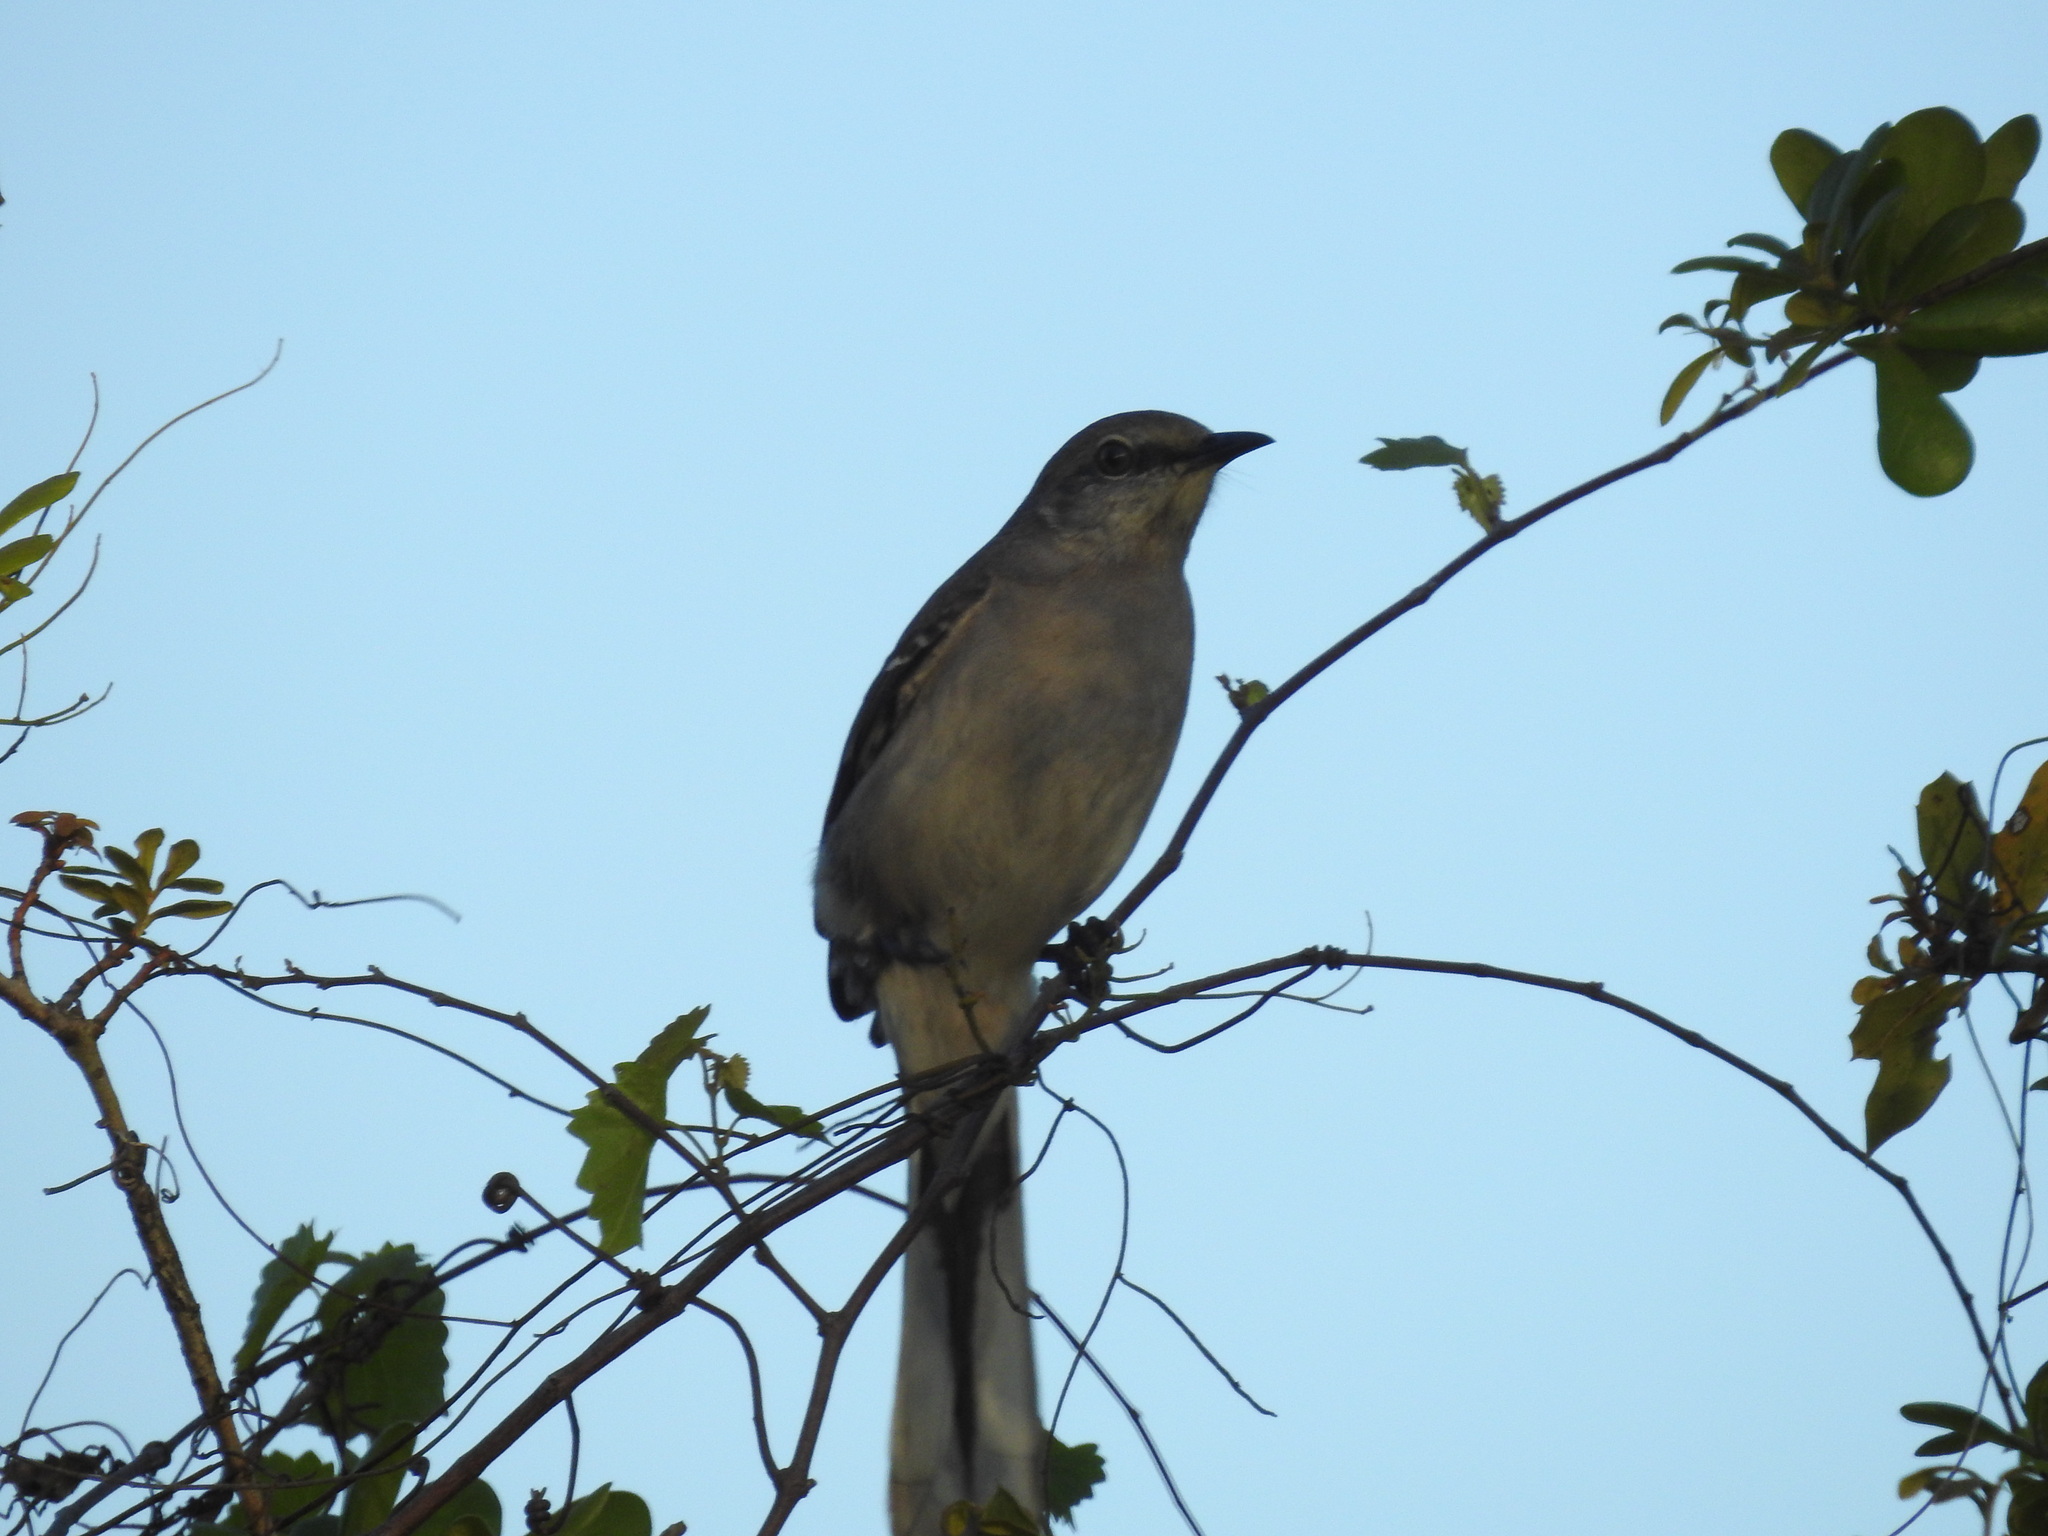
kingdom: Animalia
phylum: Chordata
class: Aves
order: Passeriformes
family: Mimidae
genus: Mimus
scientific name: Mimus polyglottos
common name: Northern mockingbird
